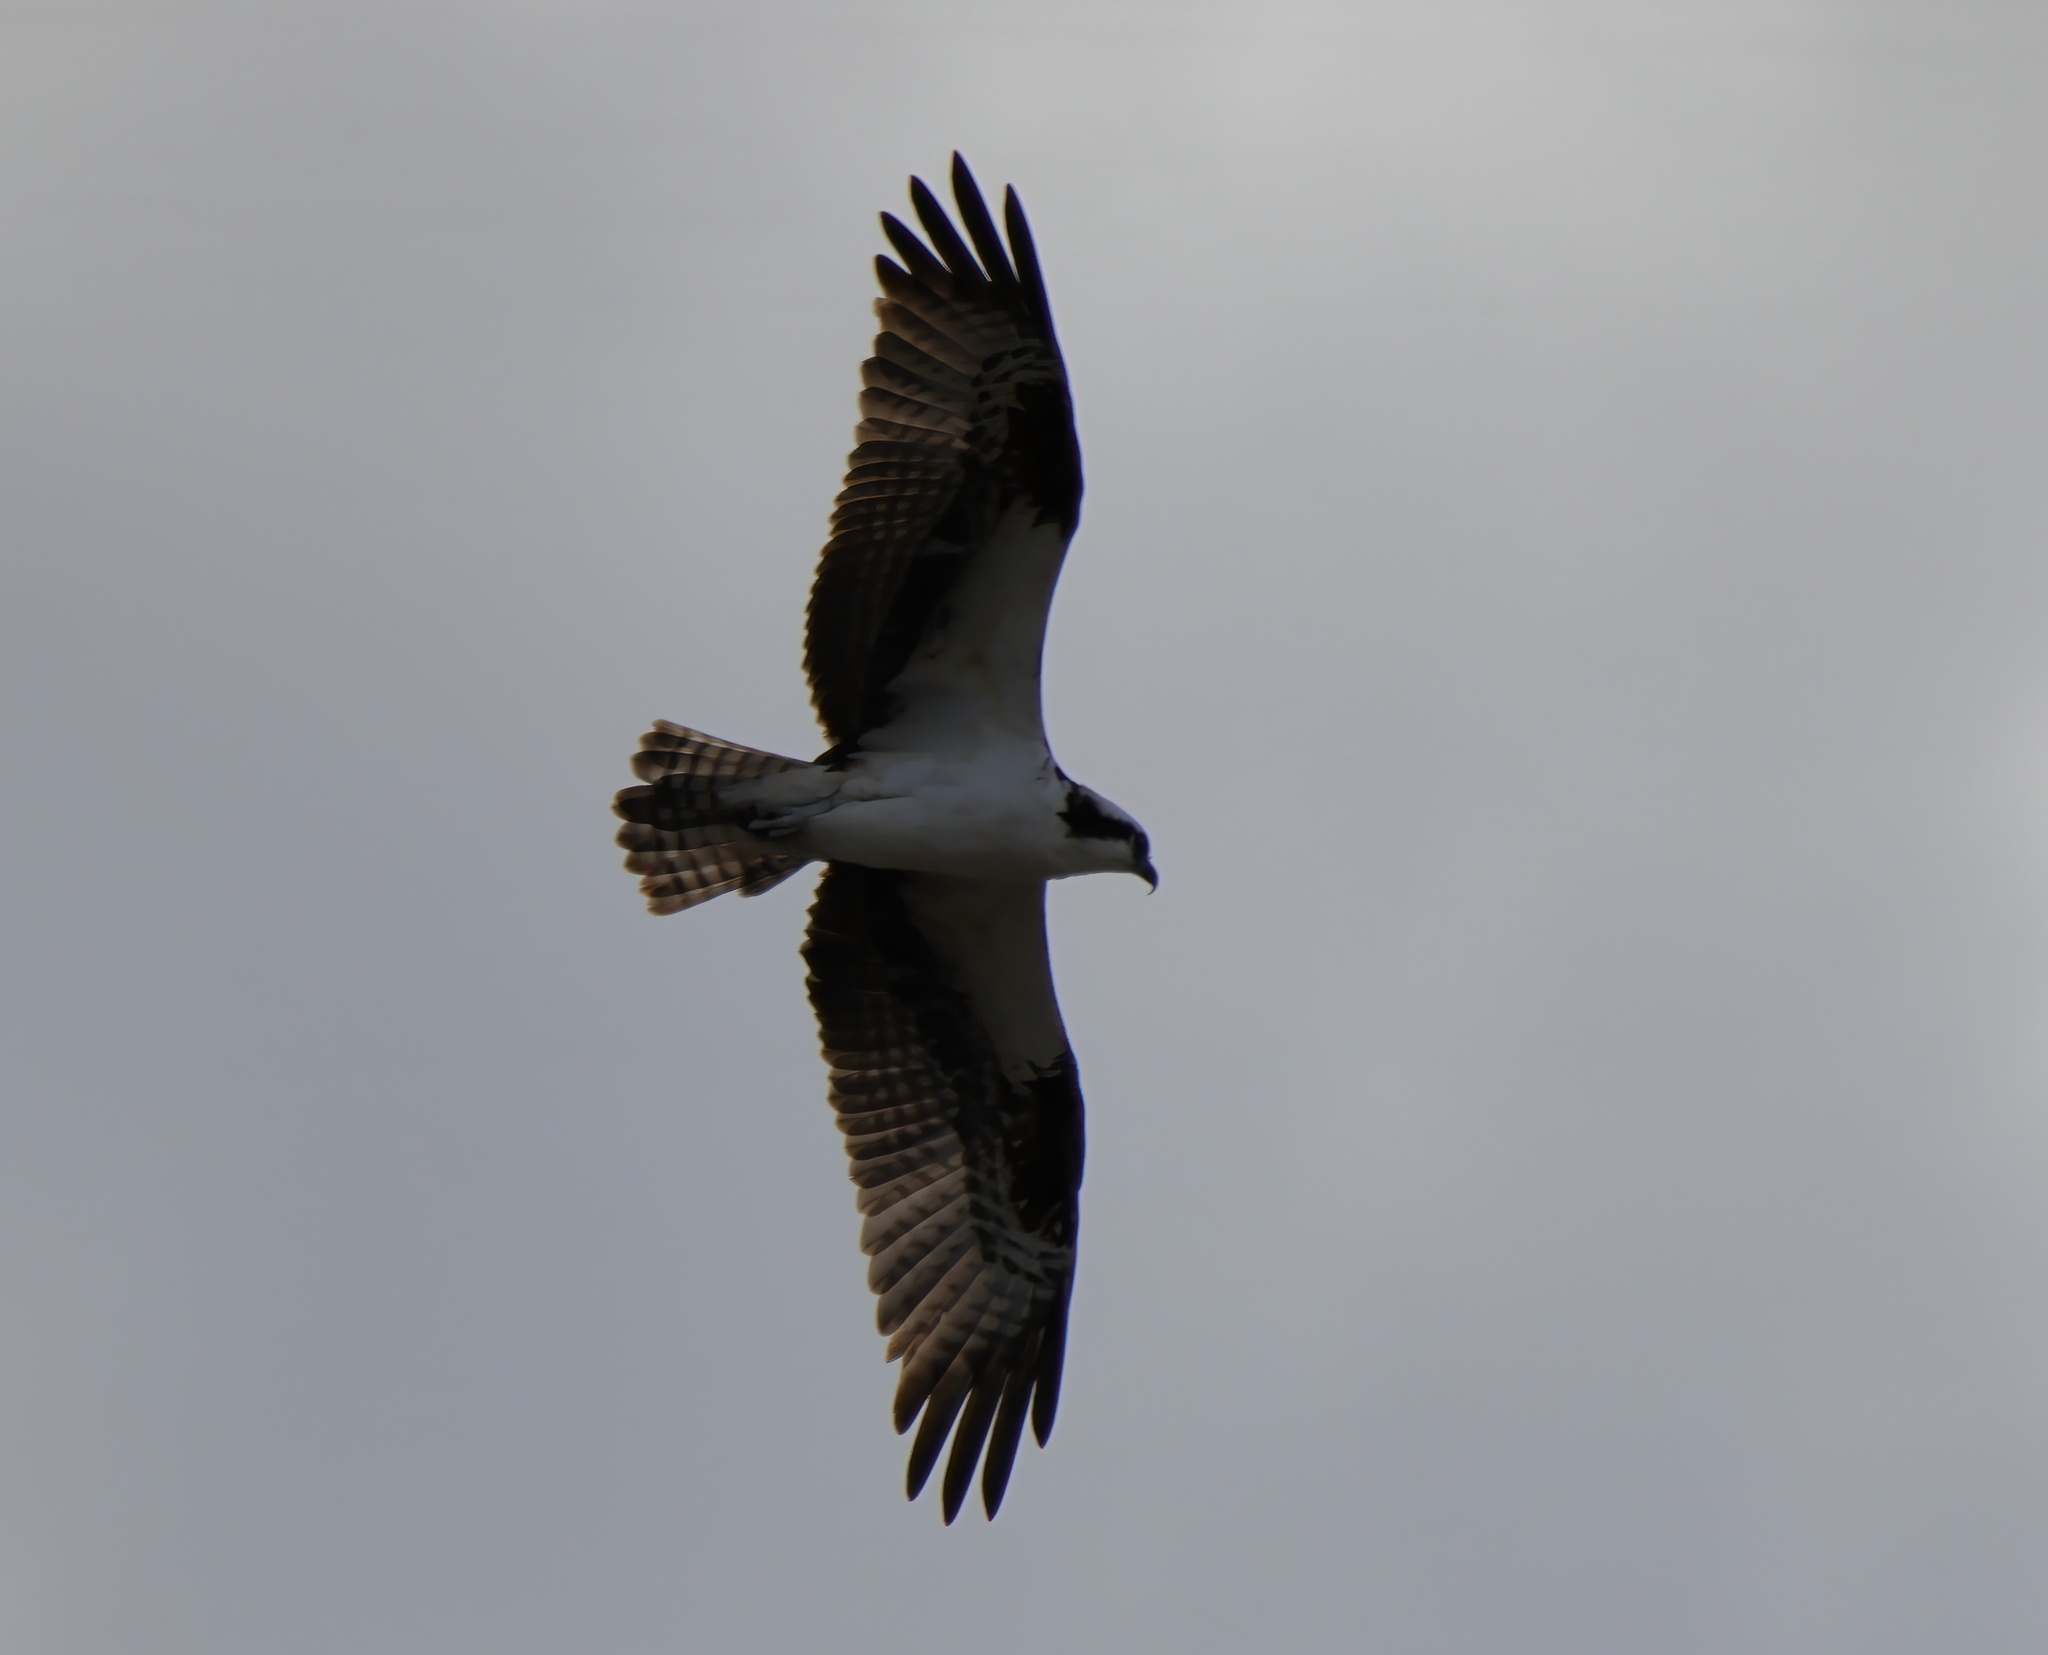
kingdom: Animalia
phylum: Chordata
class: Aves
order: Accipitriformes
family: Pandionidae
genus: Pandion
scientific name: Pandion haliaetus
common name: Osprey
